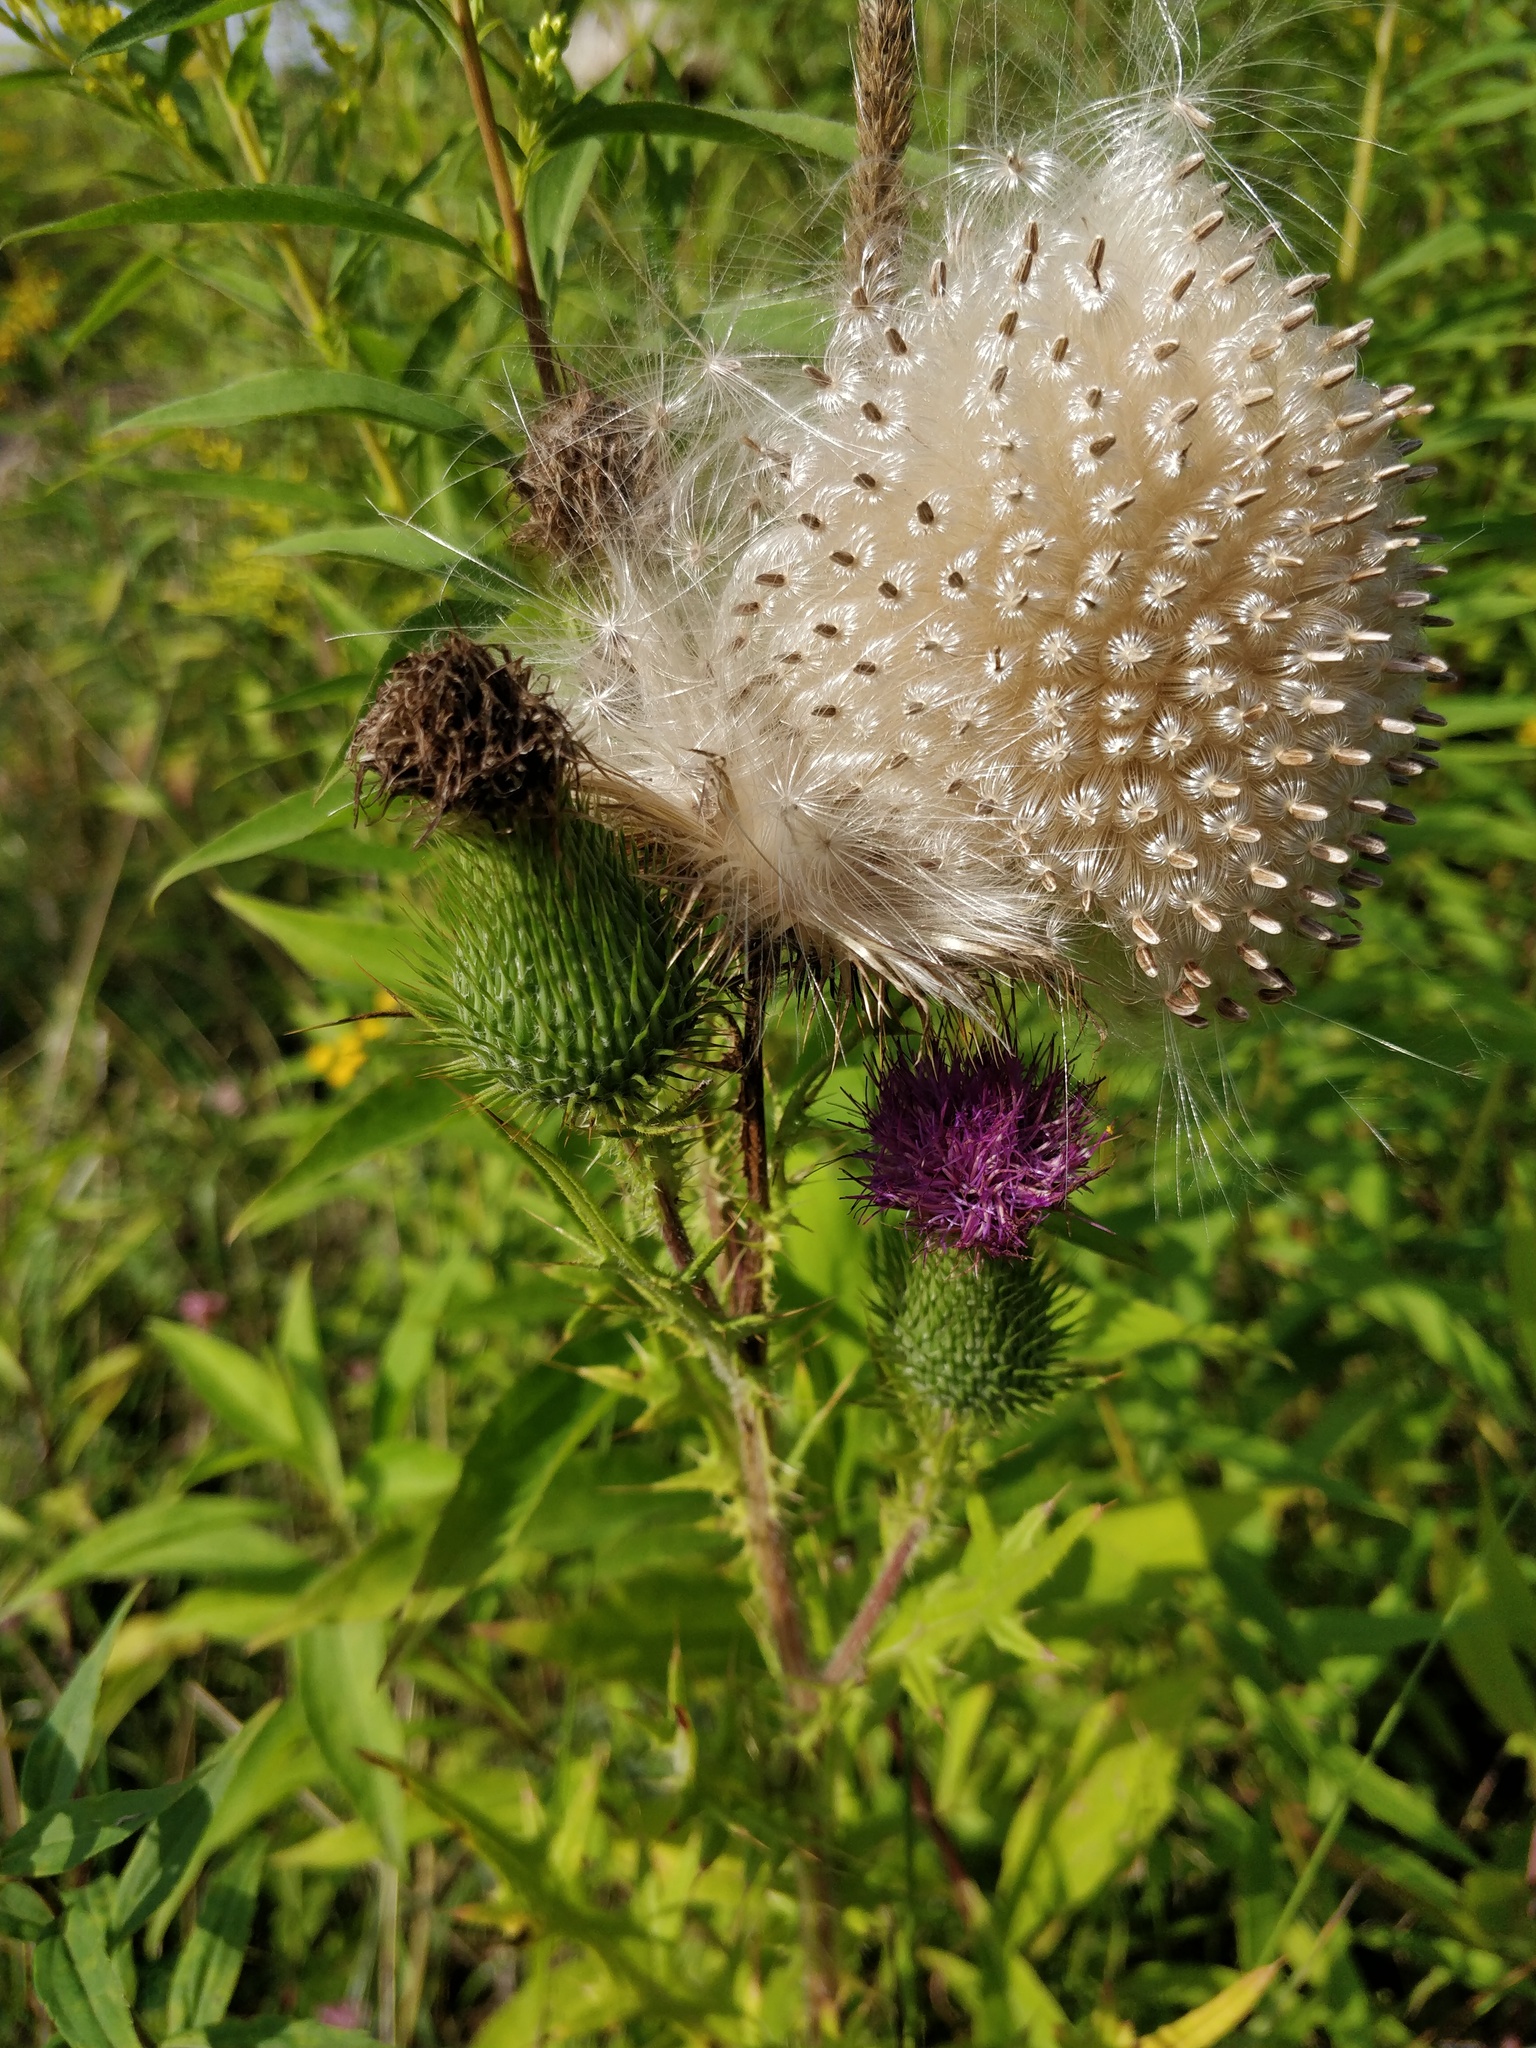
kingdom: Plantae
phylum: Tracheophyta
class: Magnoliopsida
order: Asterales
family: Asteraceae
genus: Cirsium
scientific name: Cirsium vulgare
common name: Bull thistle
